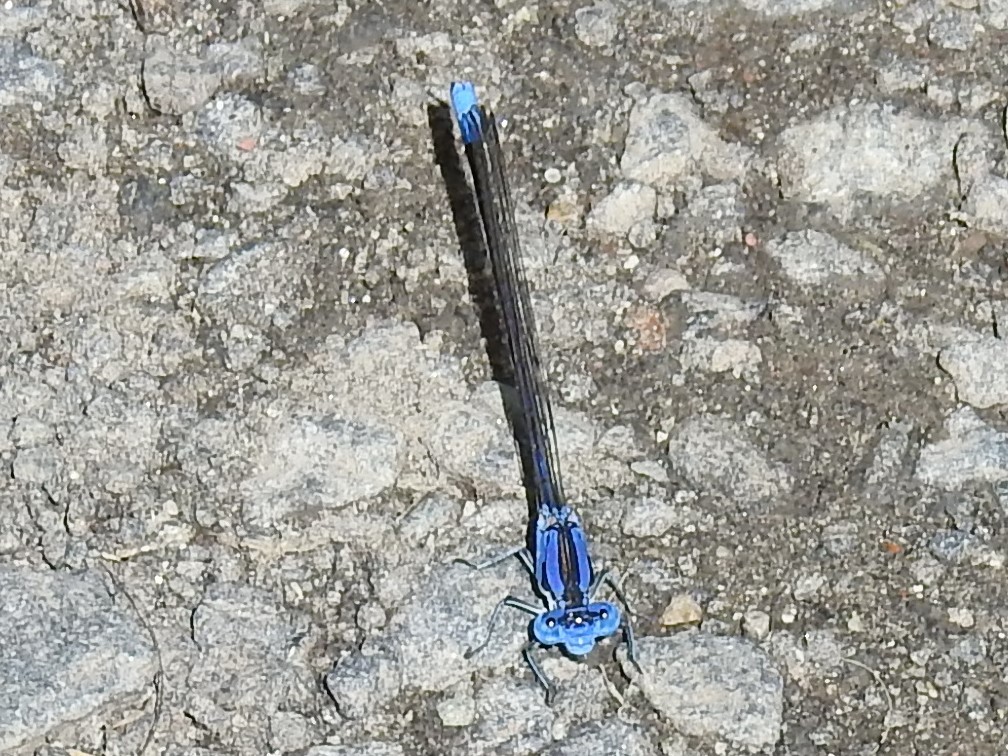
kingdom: Animalia
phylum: Arthropoda
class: Insecta
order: Odonata
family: Coenagrionidae
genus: Argia
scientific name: Argia vivida
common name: Vivid dancer
